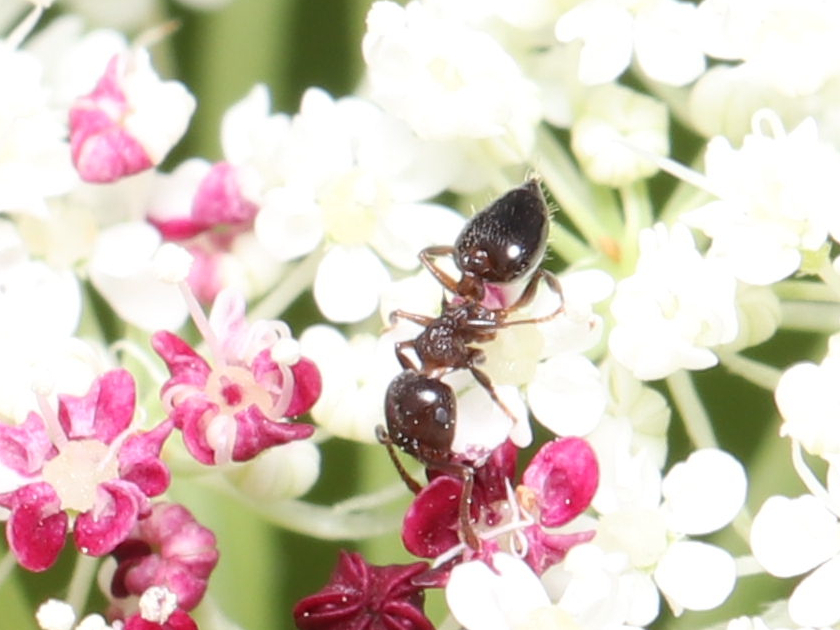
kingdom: Animalia
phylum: Arthropoda
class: Insecta
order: Hymenoptera
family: Formicidae
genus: Crematogaster
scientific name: Crematogaster
